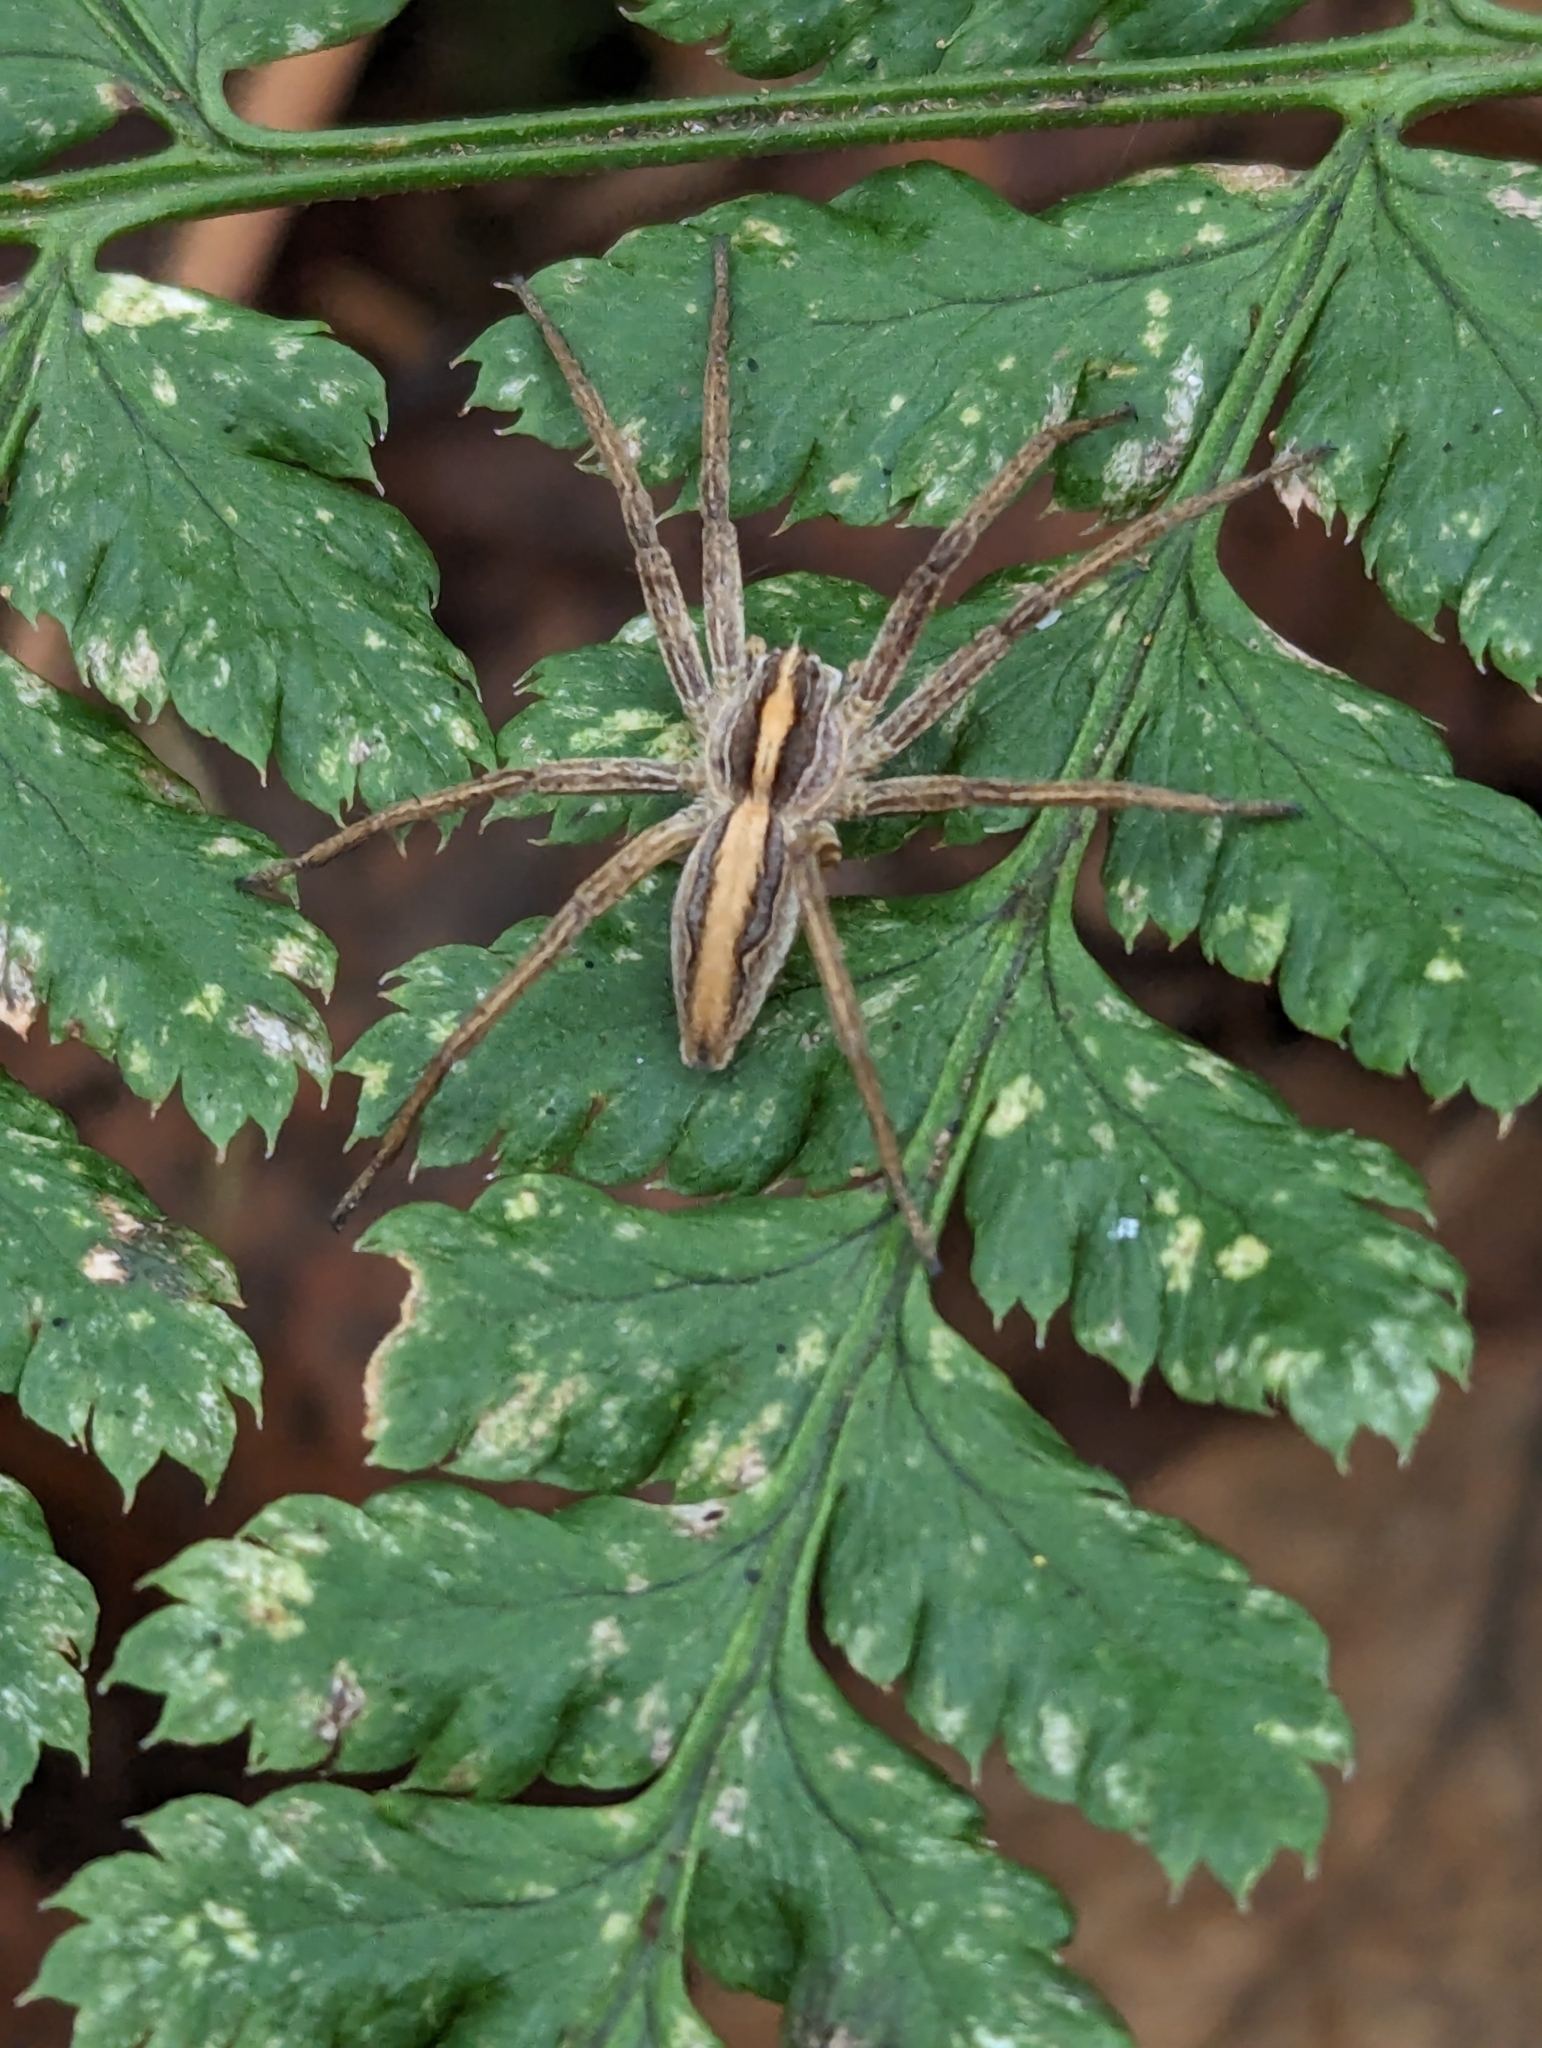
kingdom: Animalia
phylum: Arthropoda
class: Arachnida
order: Araneae
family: Pisauridae
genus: Pisaura
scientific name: Pisaura mirabilis
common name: Tent spider
